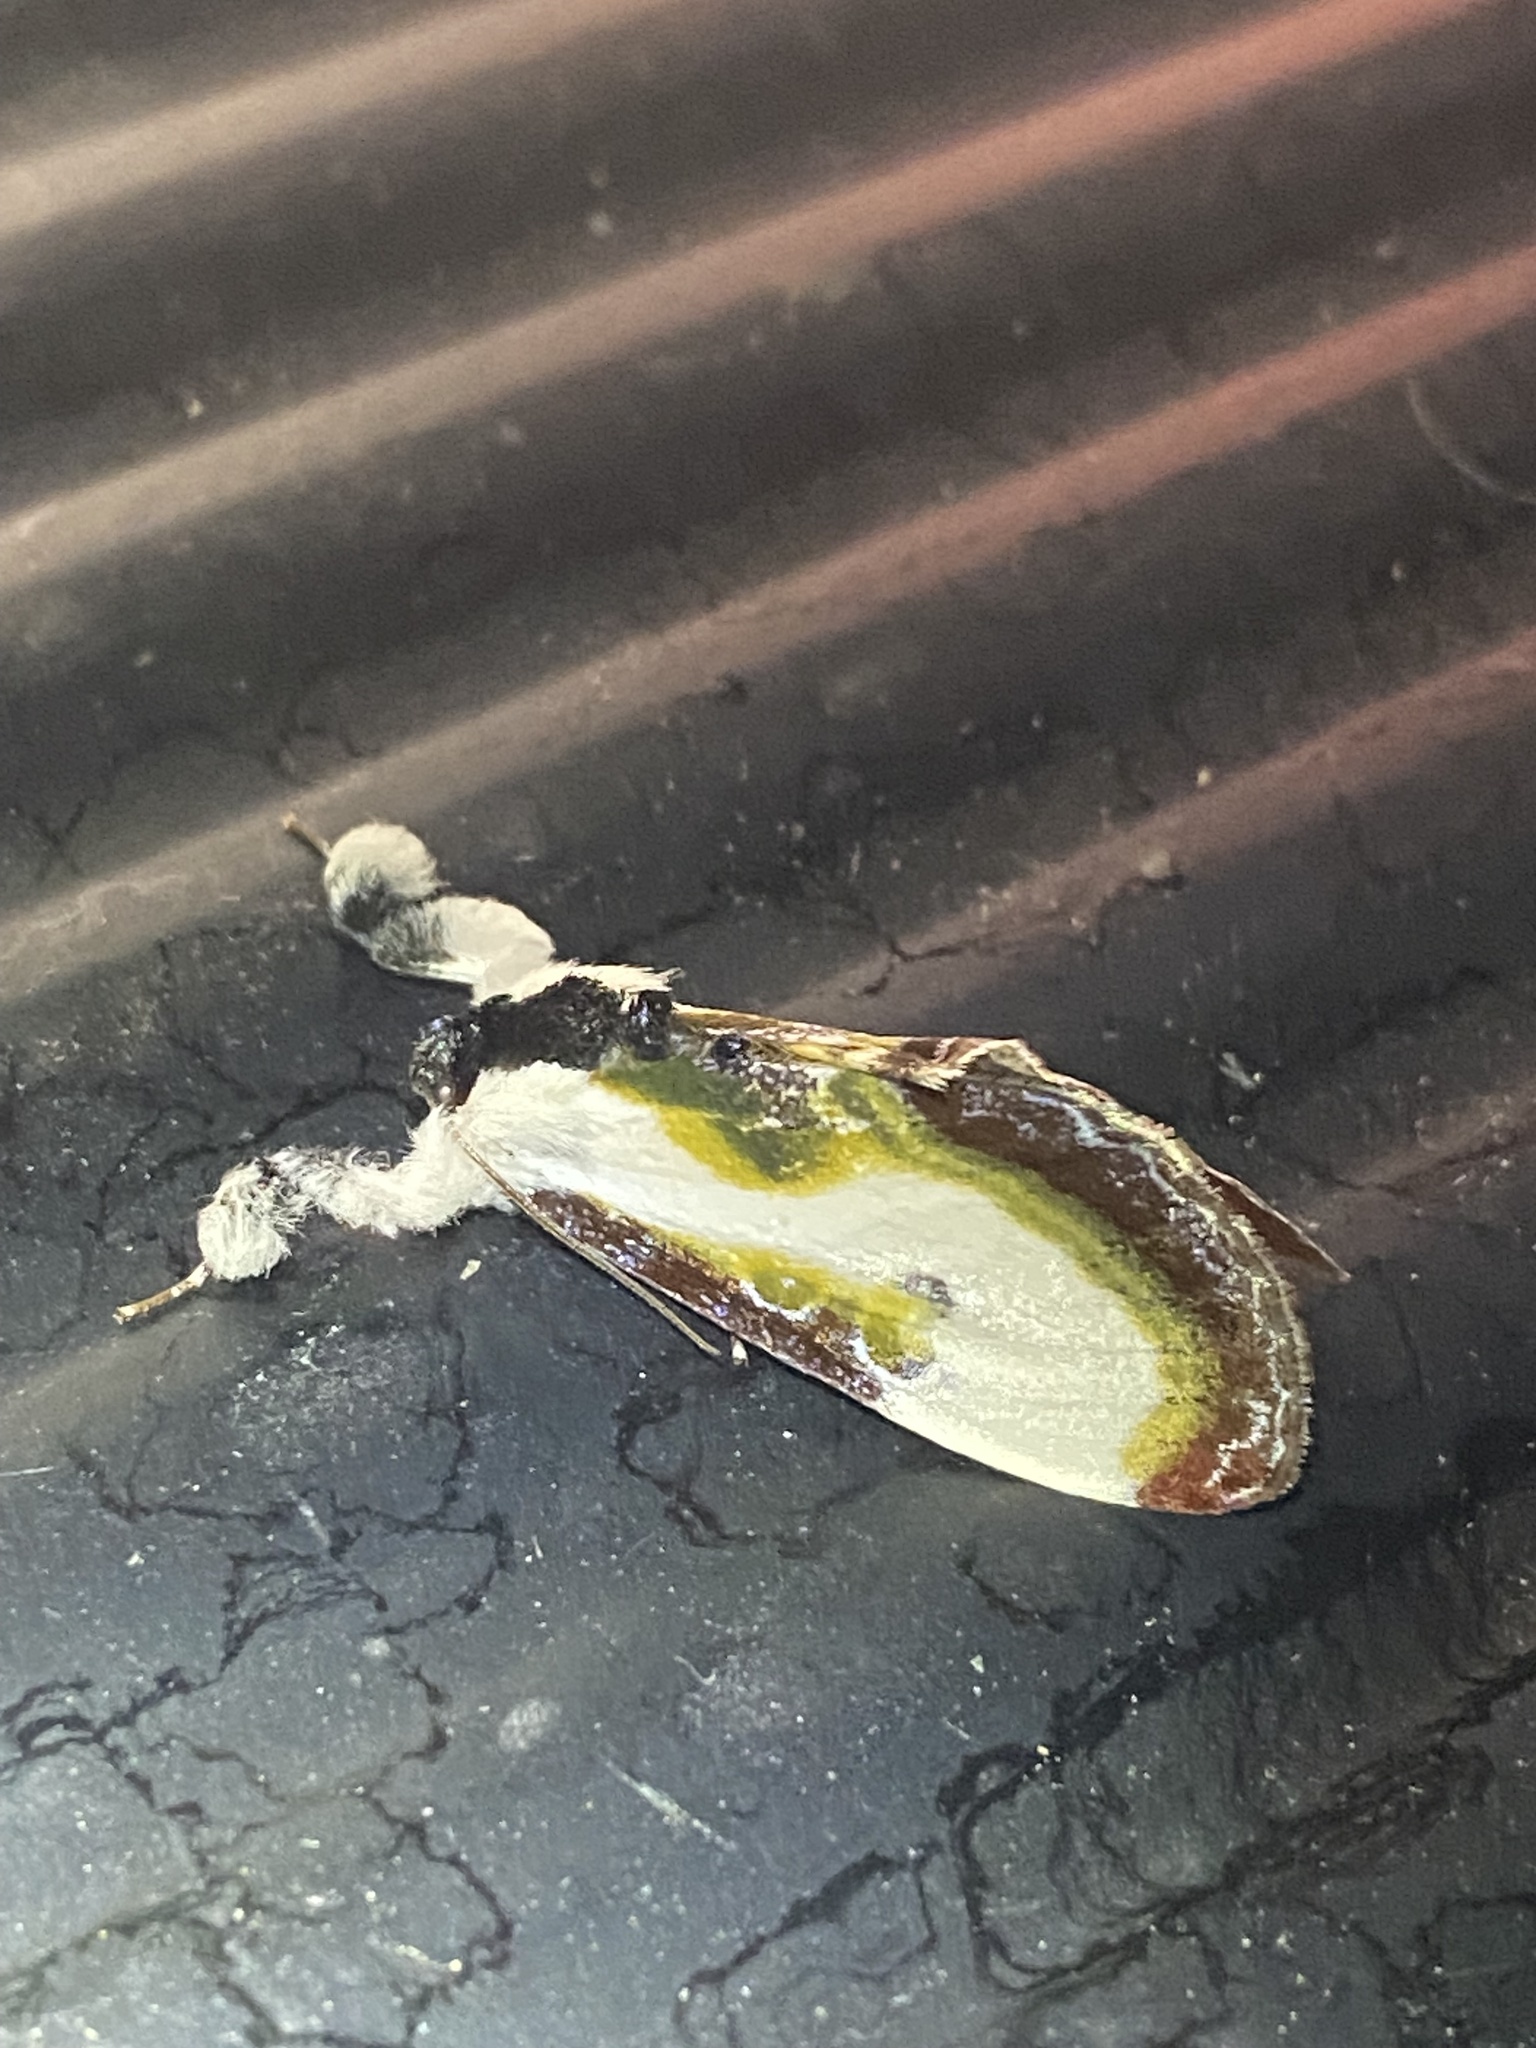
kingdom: Animalia
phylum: Arthropoda
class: Insecta
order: Lepidoptera
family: Noctuidae
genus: Eudryas
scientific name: Eudryas grata
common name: Beautiful wood-nymph
